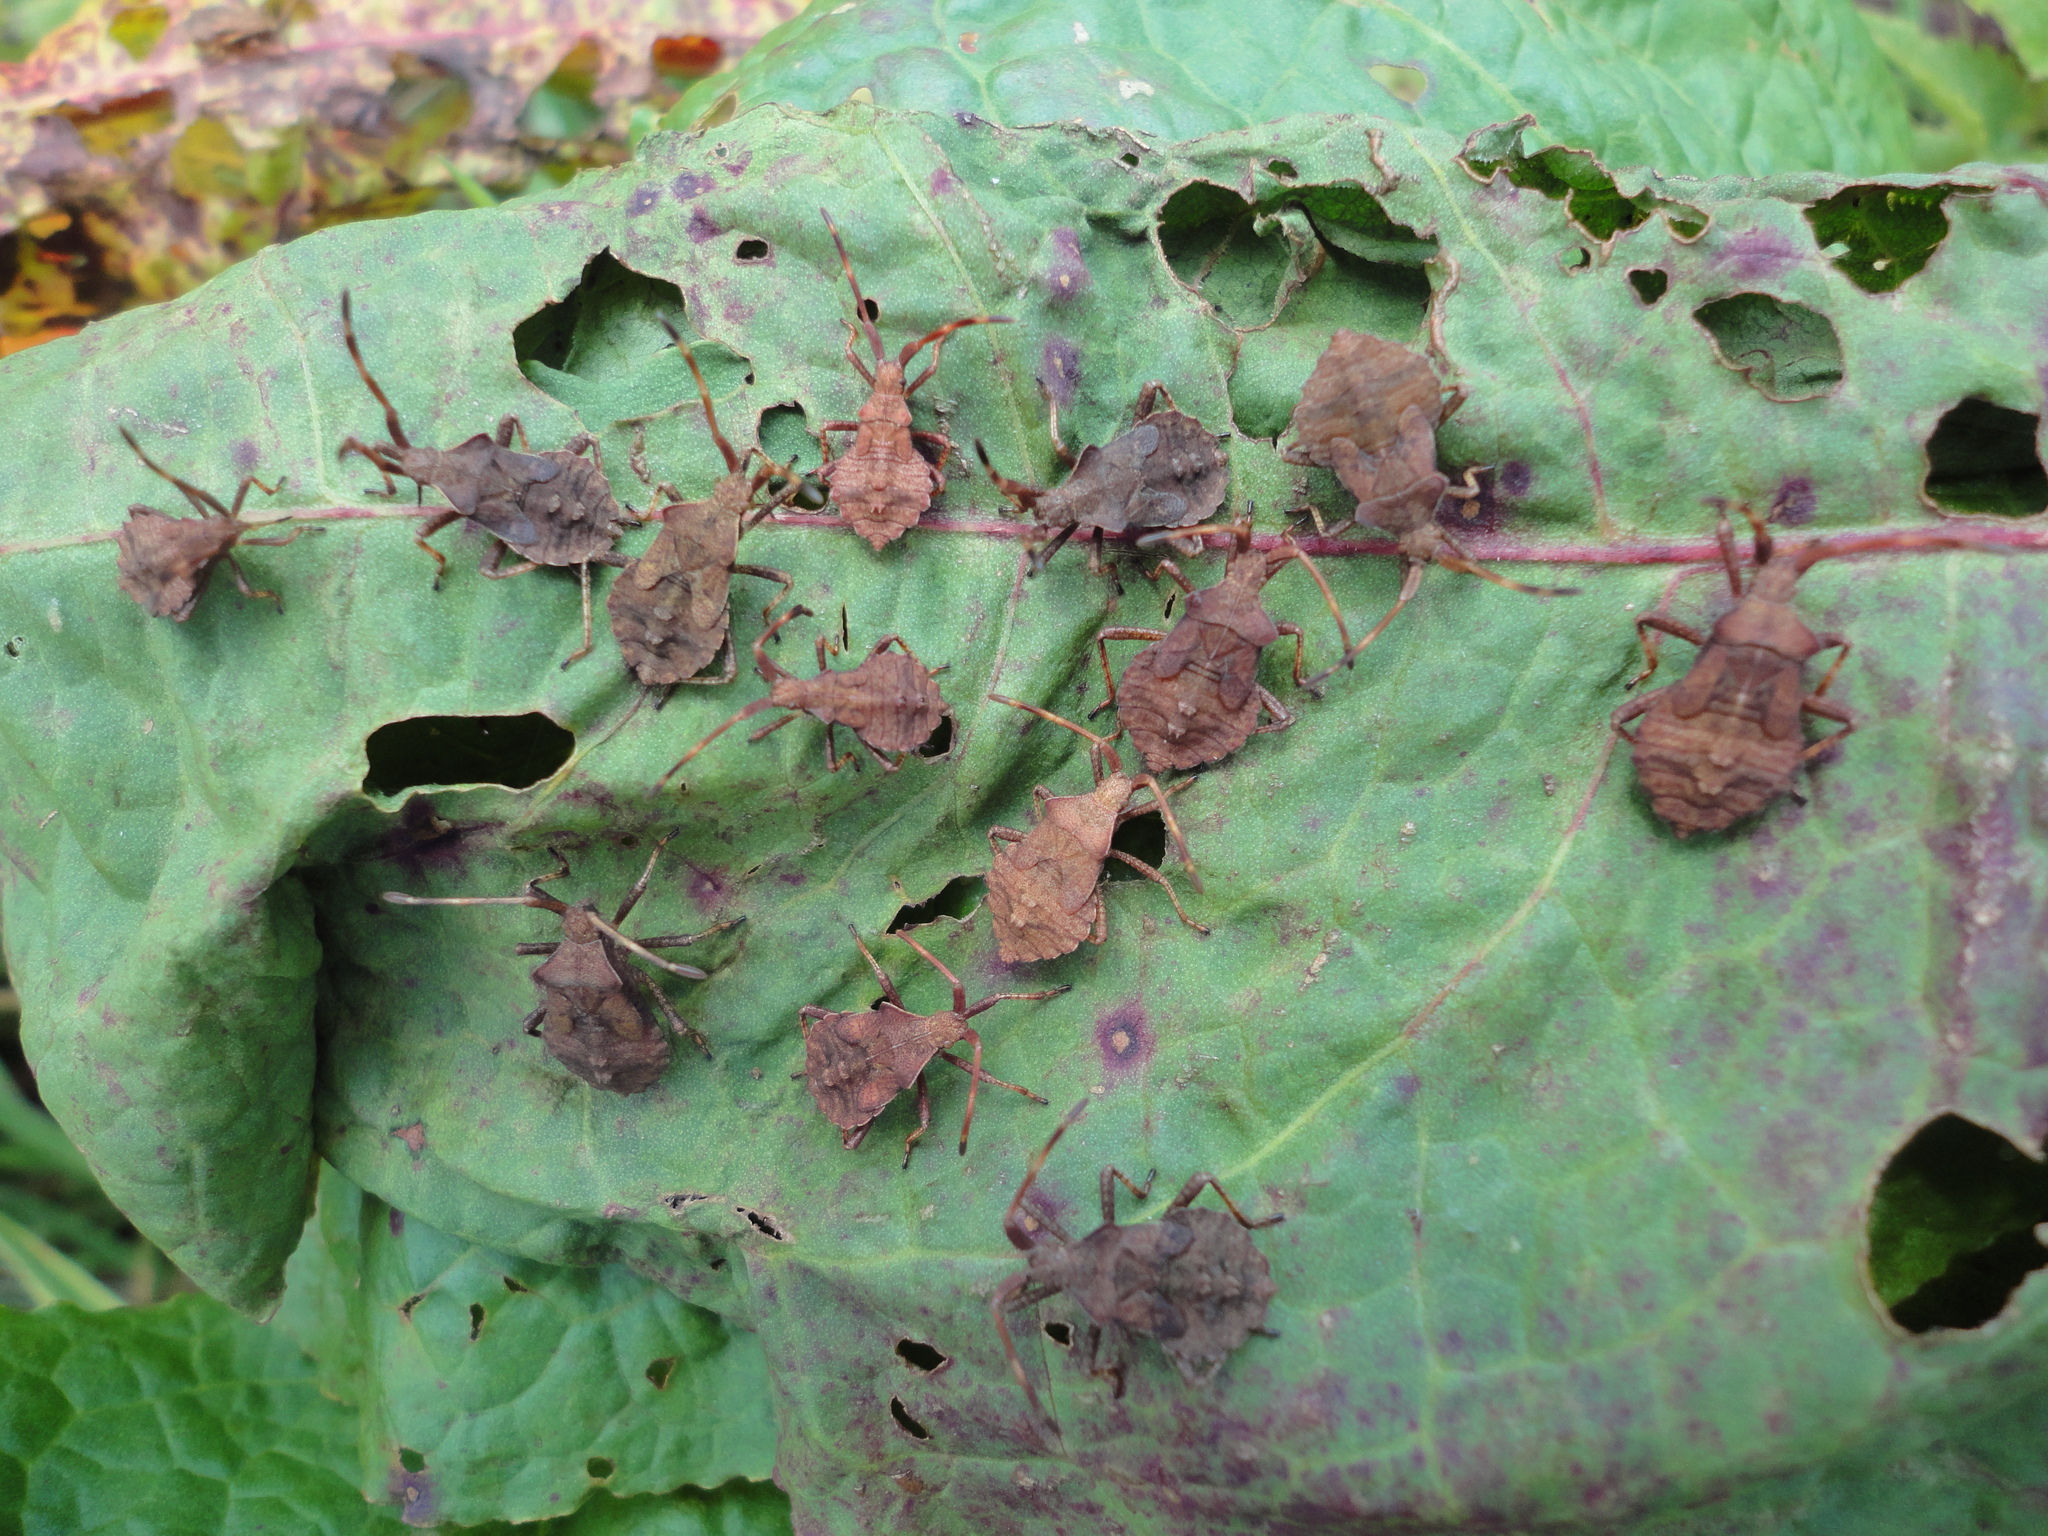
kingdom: Animalia
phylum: Arthropoda
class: Insecta
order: Hemiptera
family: Coreidae
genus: Coreus
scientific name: Coreus marginatus
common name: Dock bug
